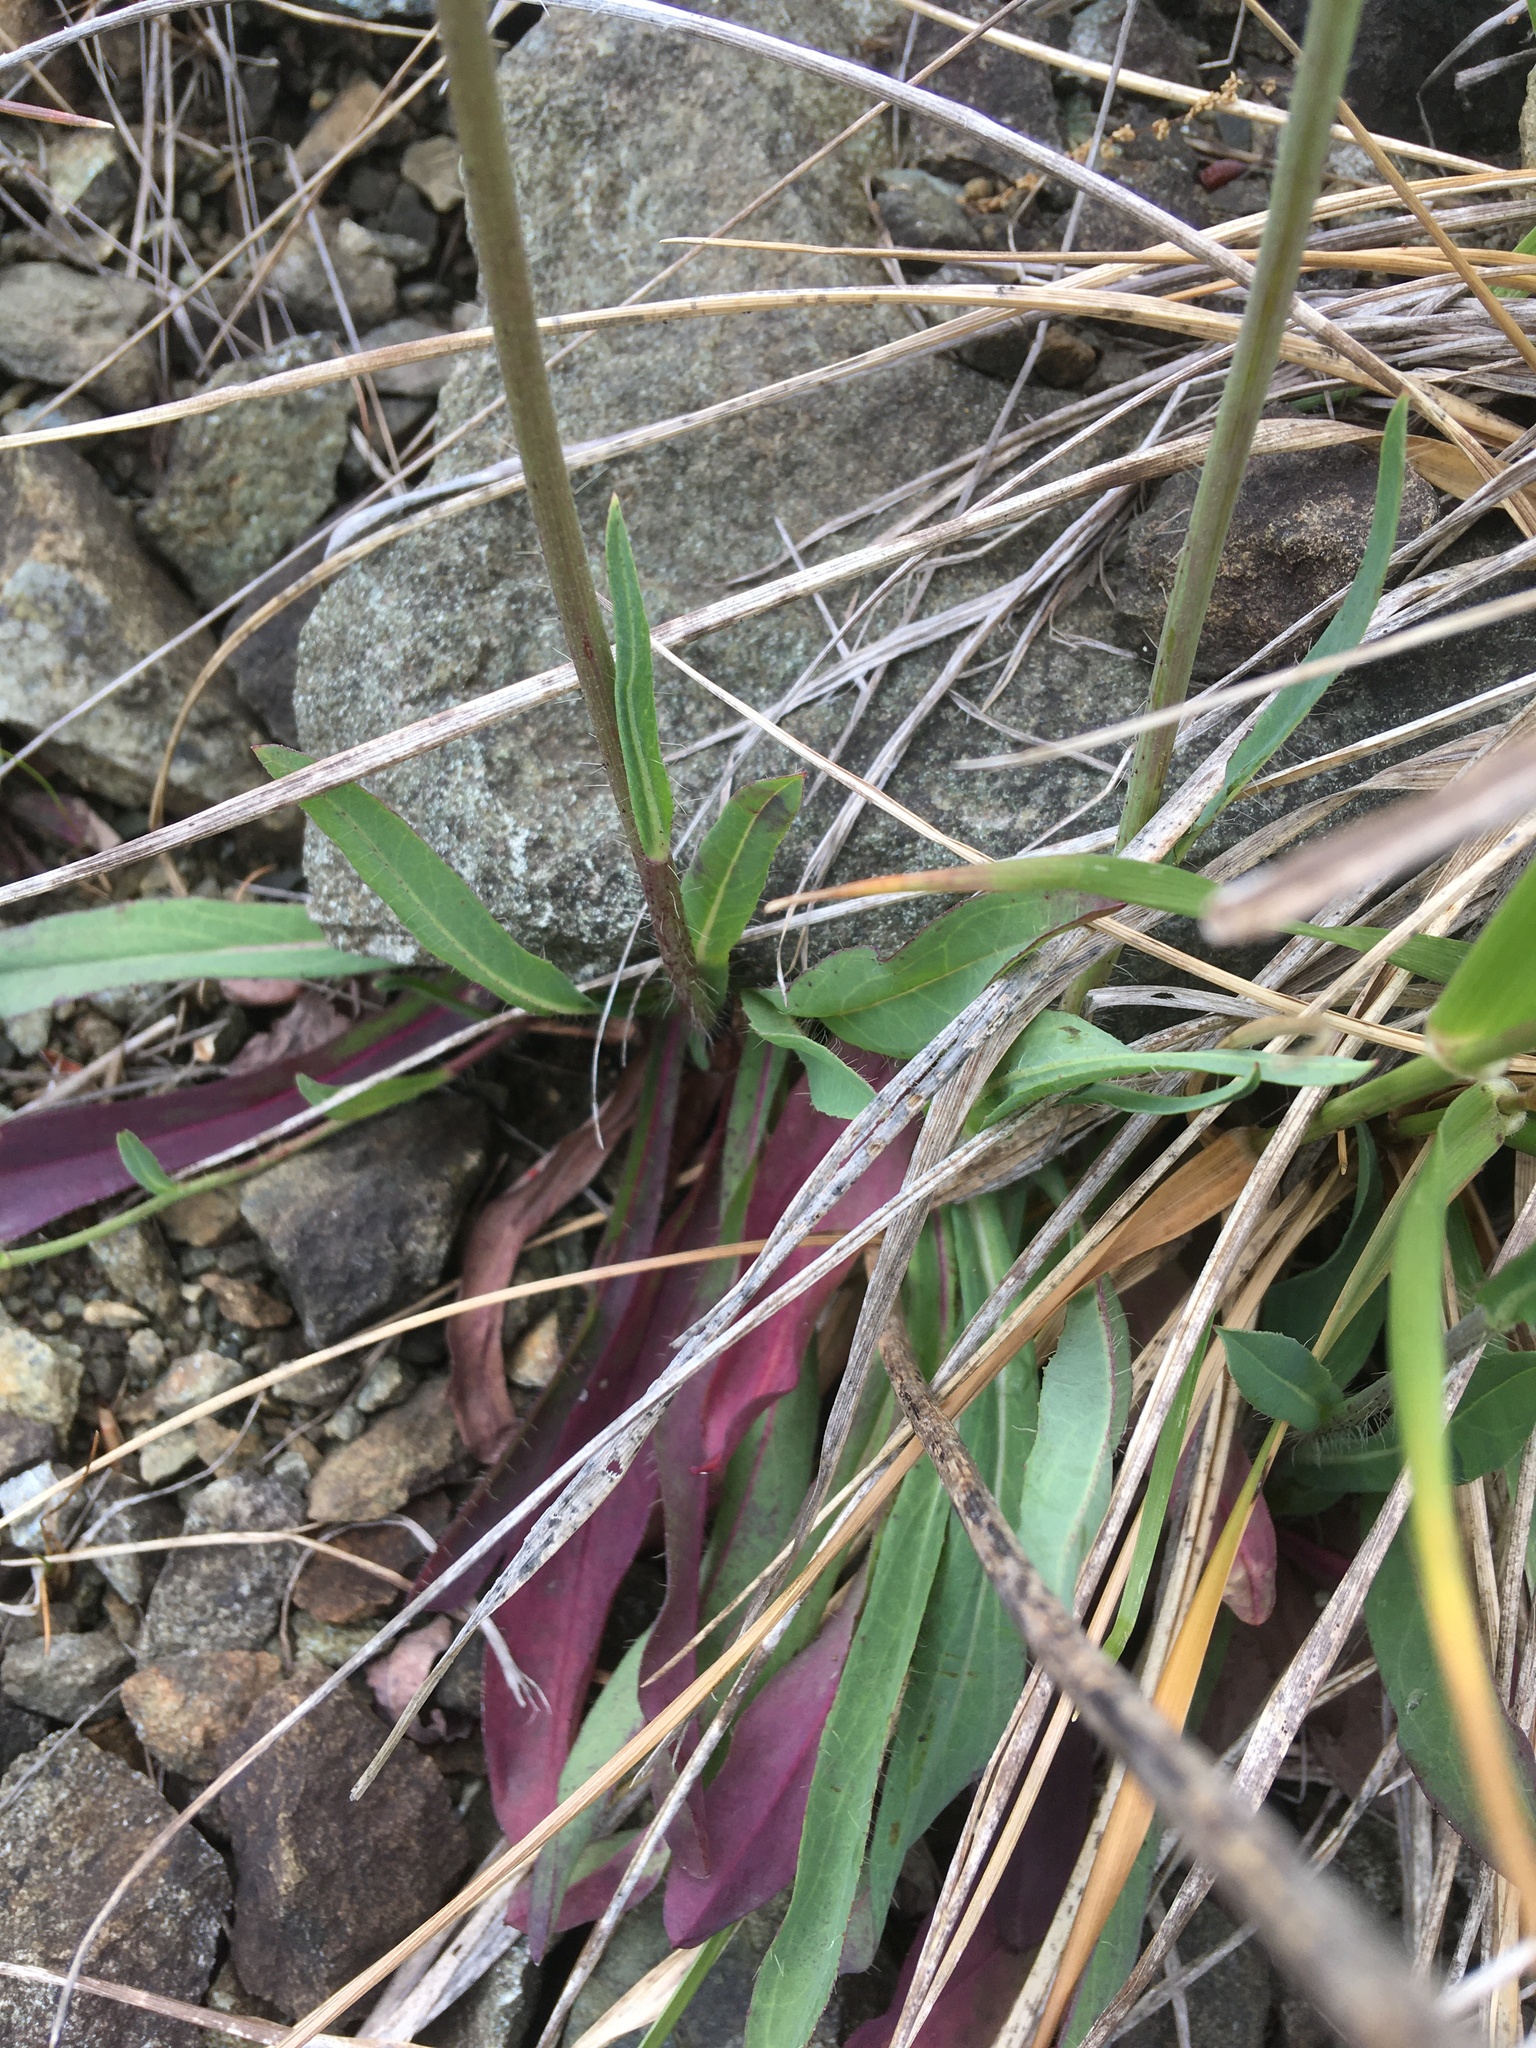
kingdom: Plantae
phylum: Tracheophyta
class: Magnoliopsida
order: Asterales
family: Asteraceae
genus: Pilosella
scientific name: Pilosella piloselloides
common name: Glaucous king-devil
